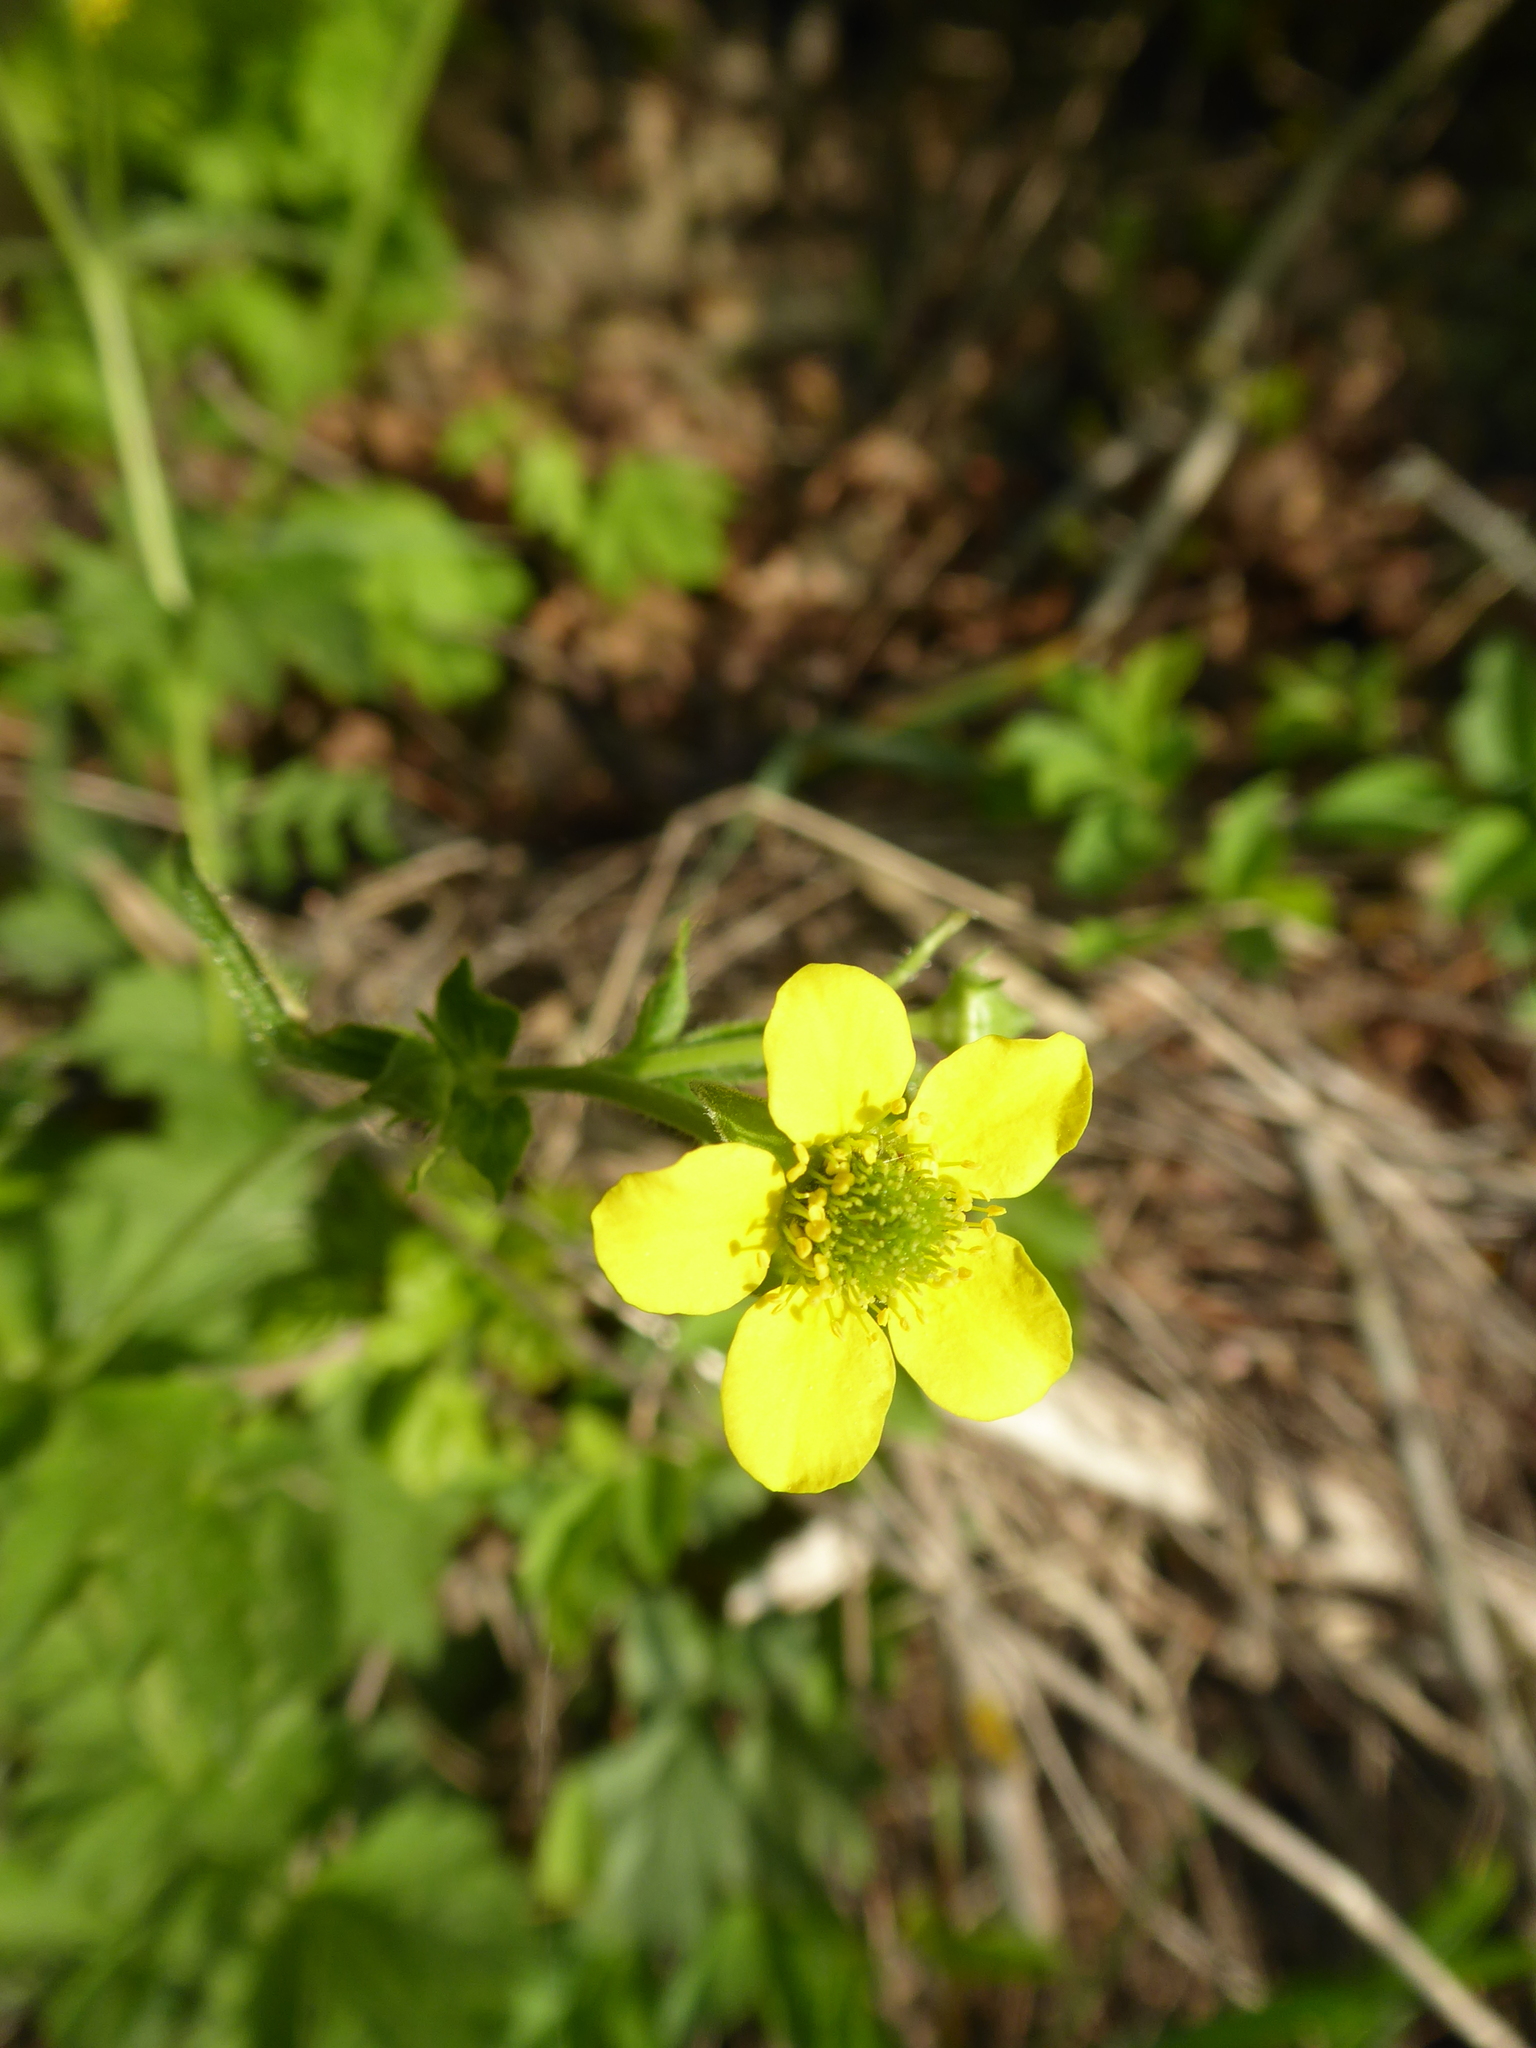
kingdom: Plantae
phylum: Tracheophyta
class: Magnoliopsida
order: Rosales
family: Rosaceae
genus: Geum
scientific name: Geum urbanum
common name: Wood avens
